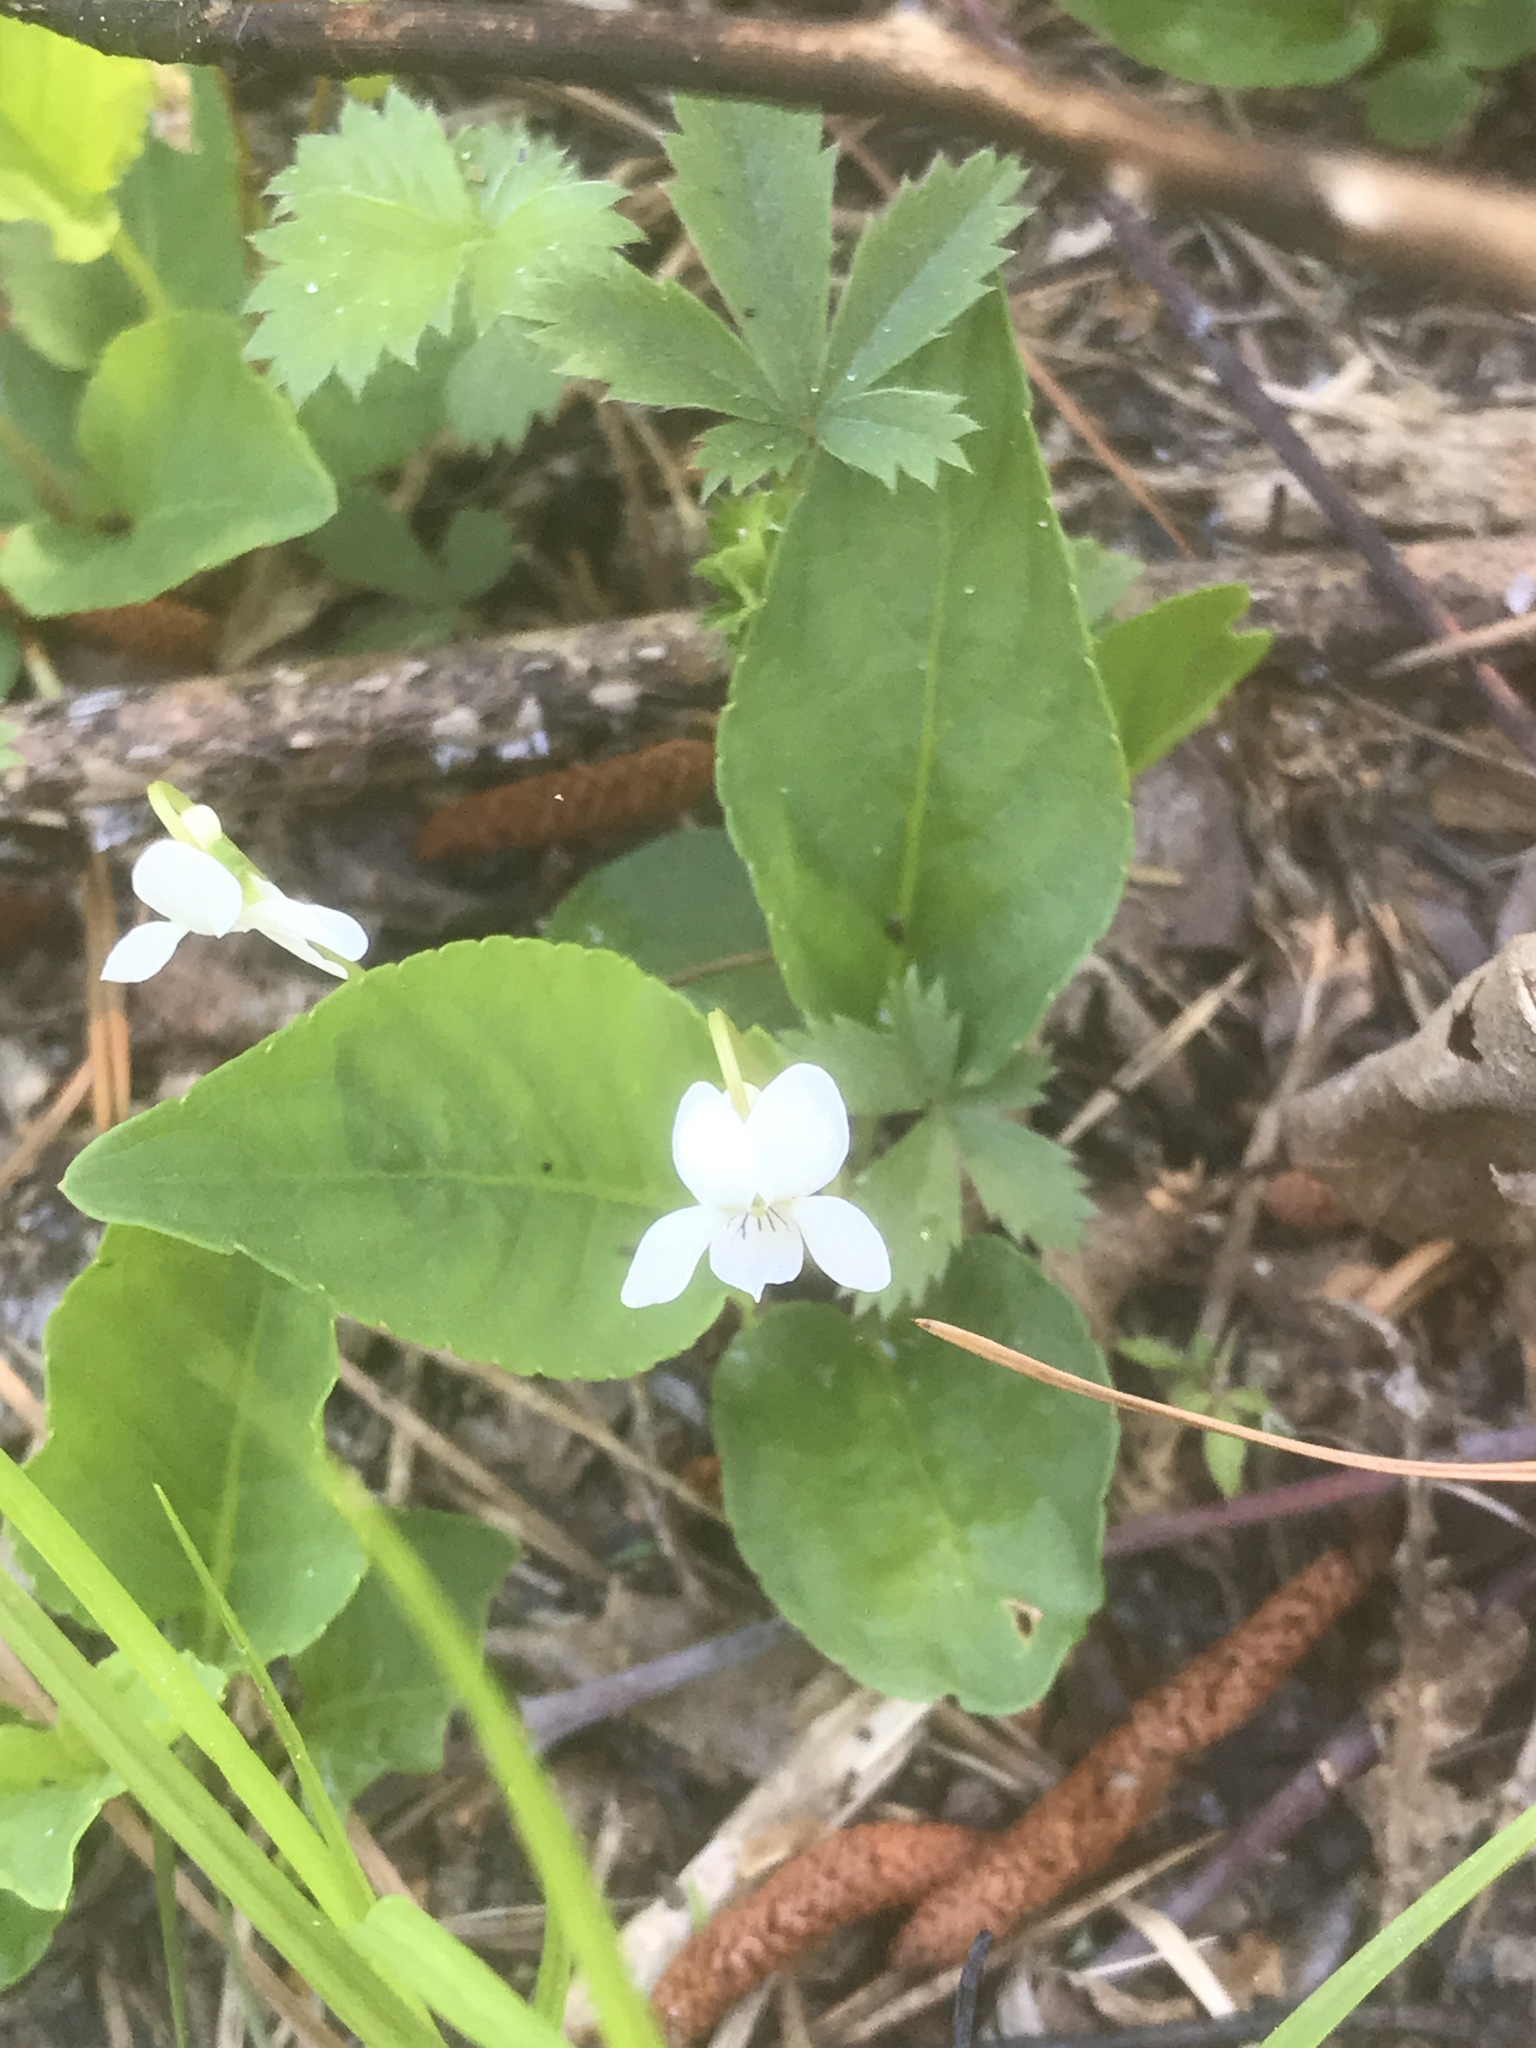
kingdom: Plantae
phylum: Tracheophyta
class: Magnoliopsida
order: Malpighiales
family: Violaceae
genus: Viola
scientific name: Viola primulifolia
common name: Primrose-leaf violet
